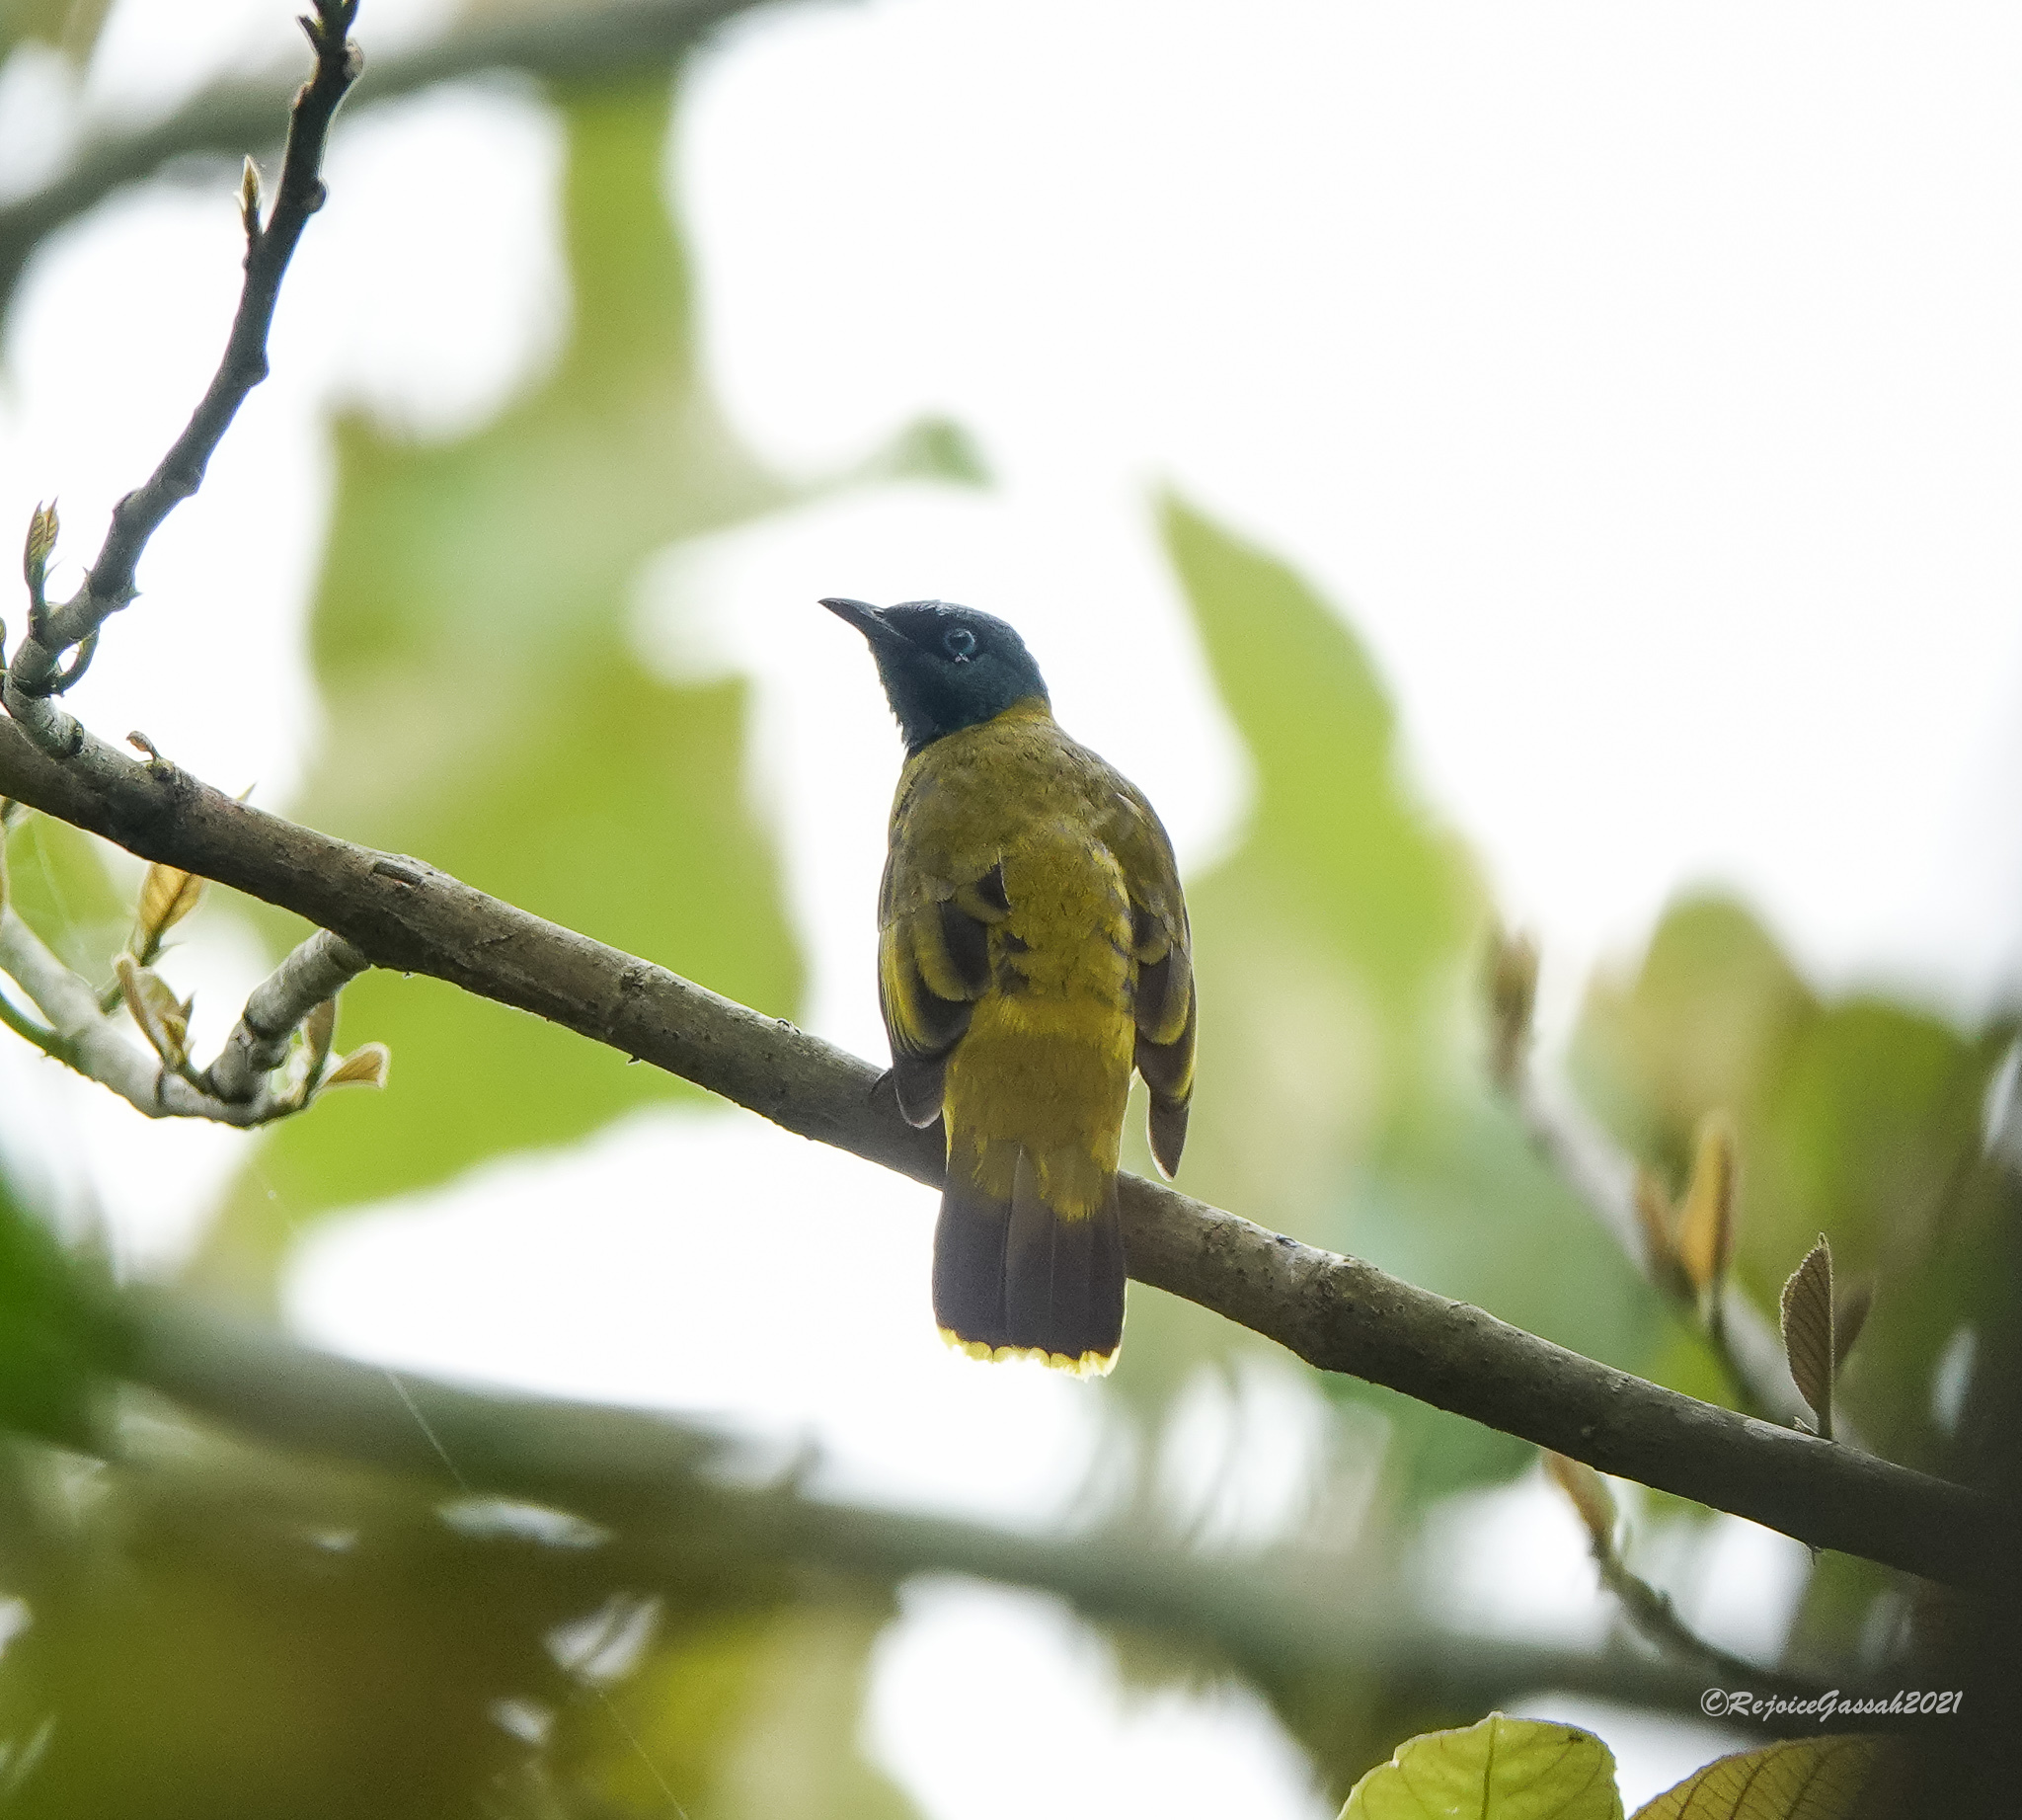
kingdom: Animalia
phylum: Chordata
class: Aves
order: Passeriformes
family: Pycnonotidae
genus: Microtarsus
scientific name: Microtarsus
